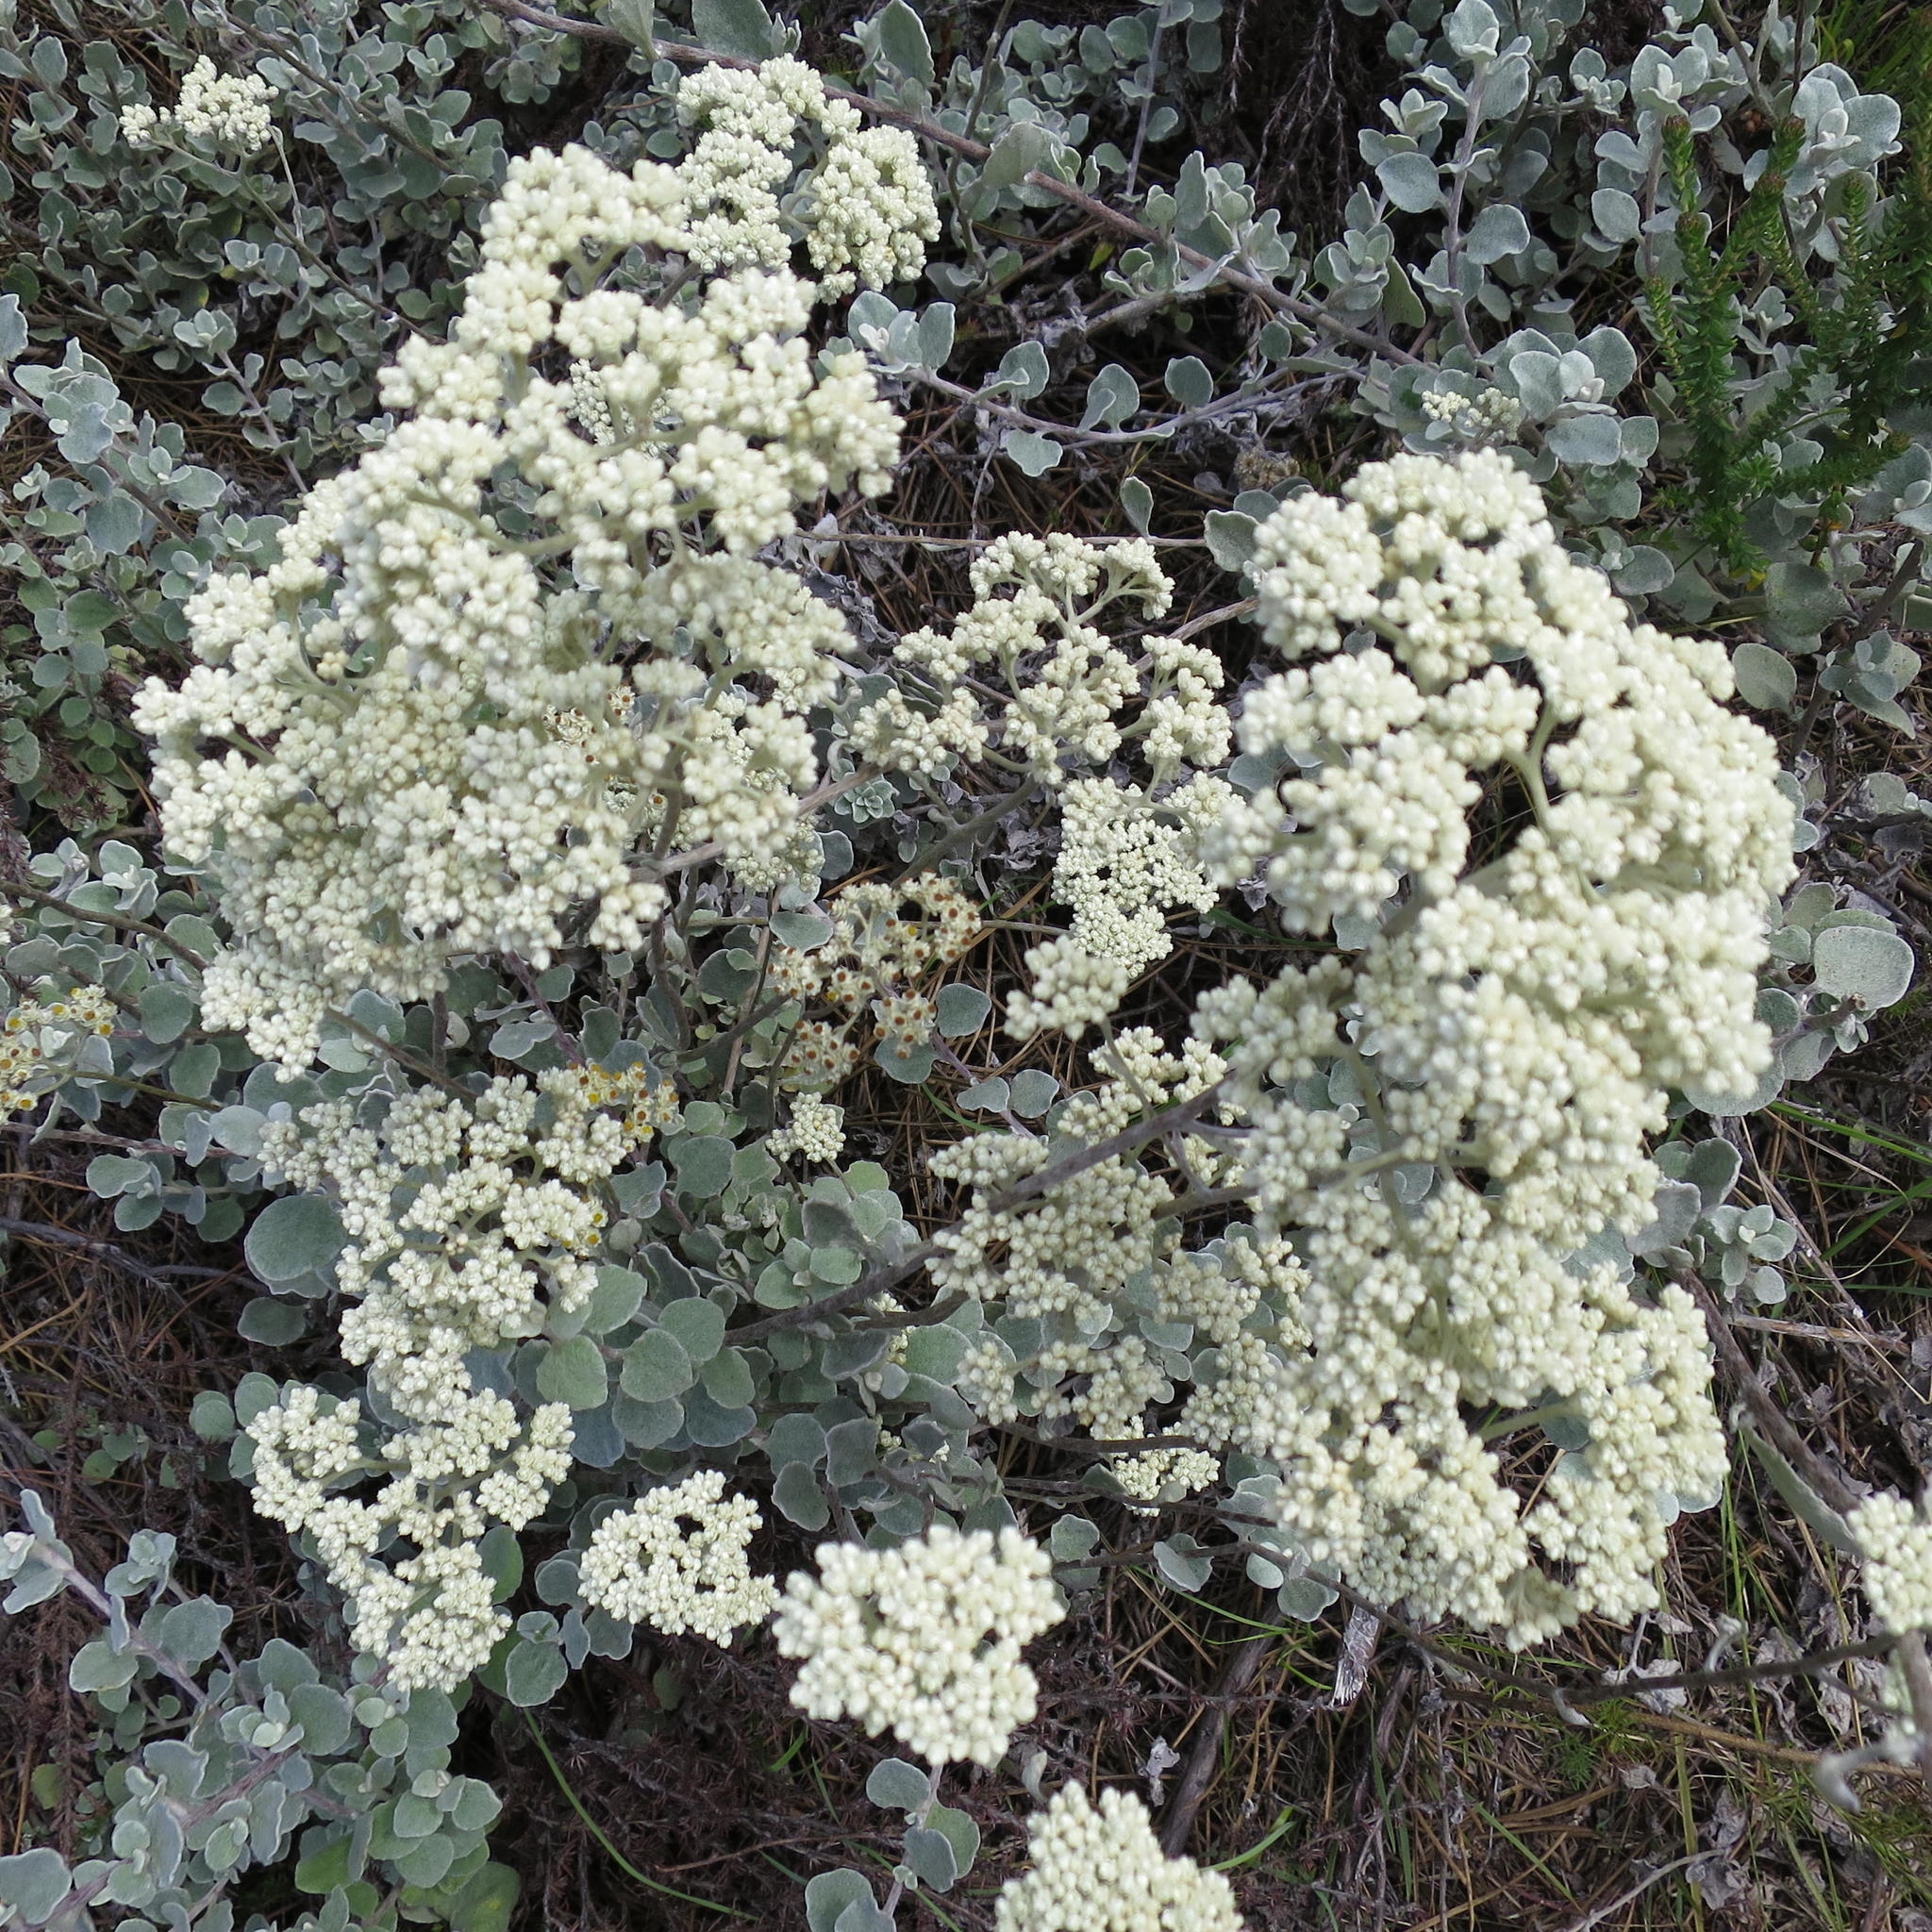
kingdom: Plantae
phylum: Tracheophyta
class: Magnoliopsida
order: Asterales
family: Asteraceae
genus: Helichrysum
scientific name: Helichrysum petiolare
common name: Licorice-plant
